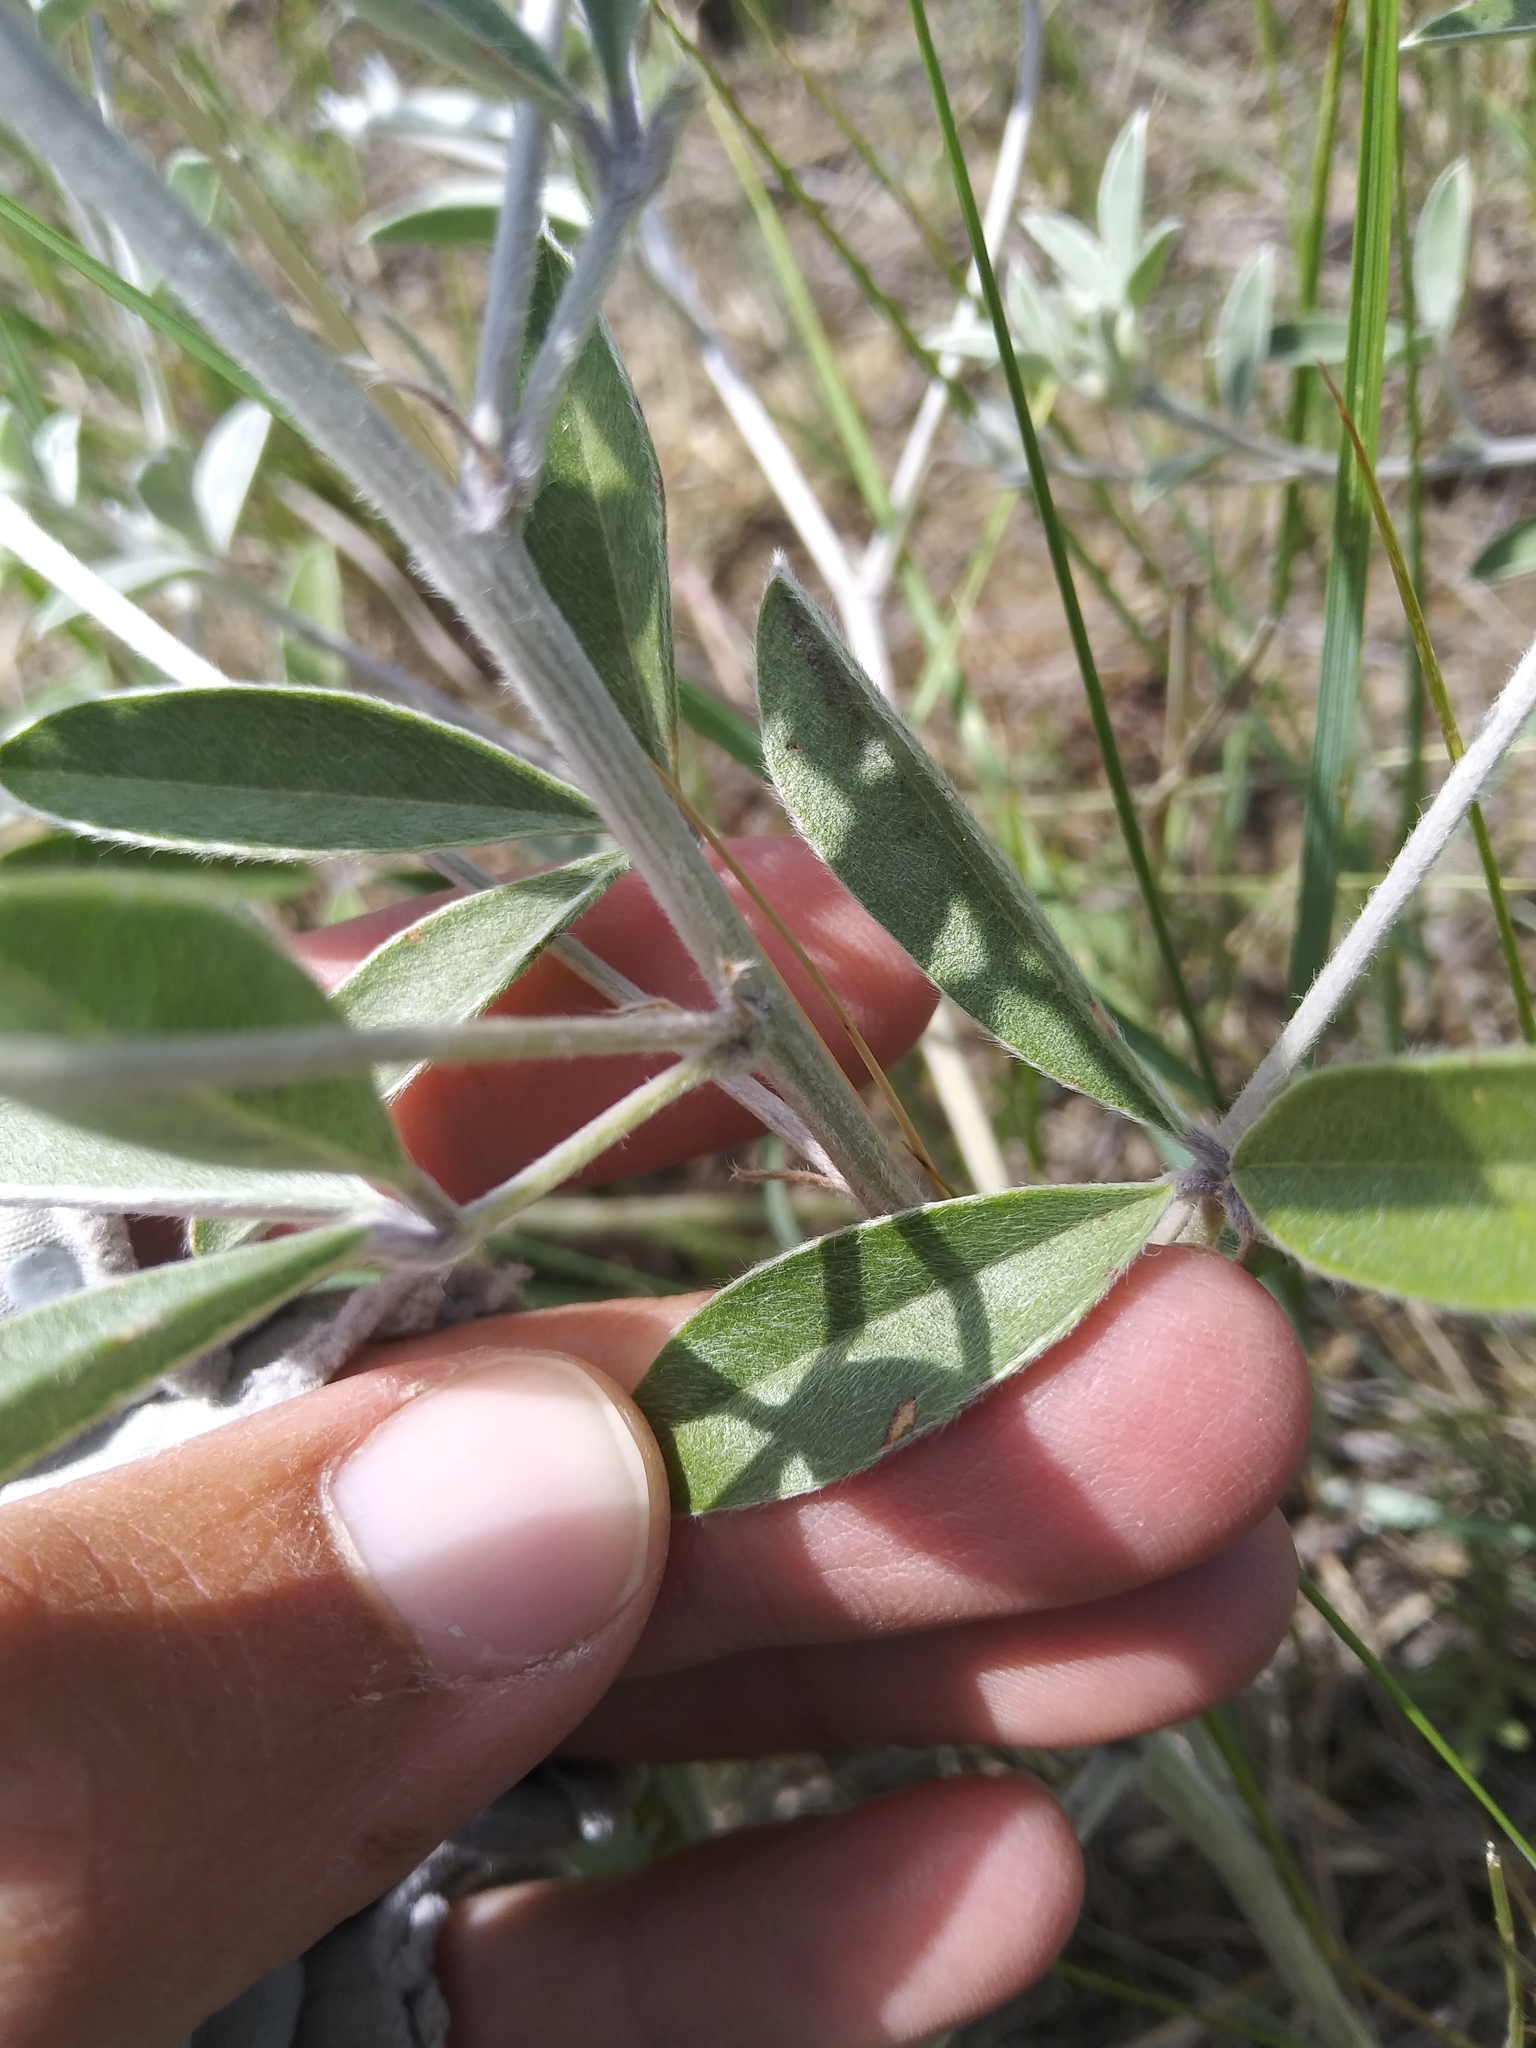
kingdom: Plantae
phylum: Tracheophyta
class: Magnoliopsida
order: Fabales
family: Fabaceae
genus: Pediomelum
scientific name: Pediomelum argophyllum
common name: Silver-leaved indian breadroot
